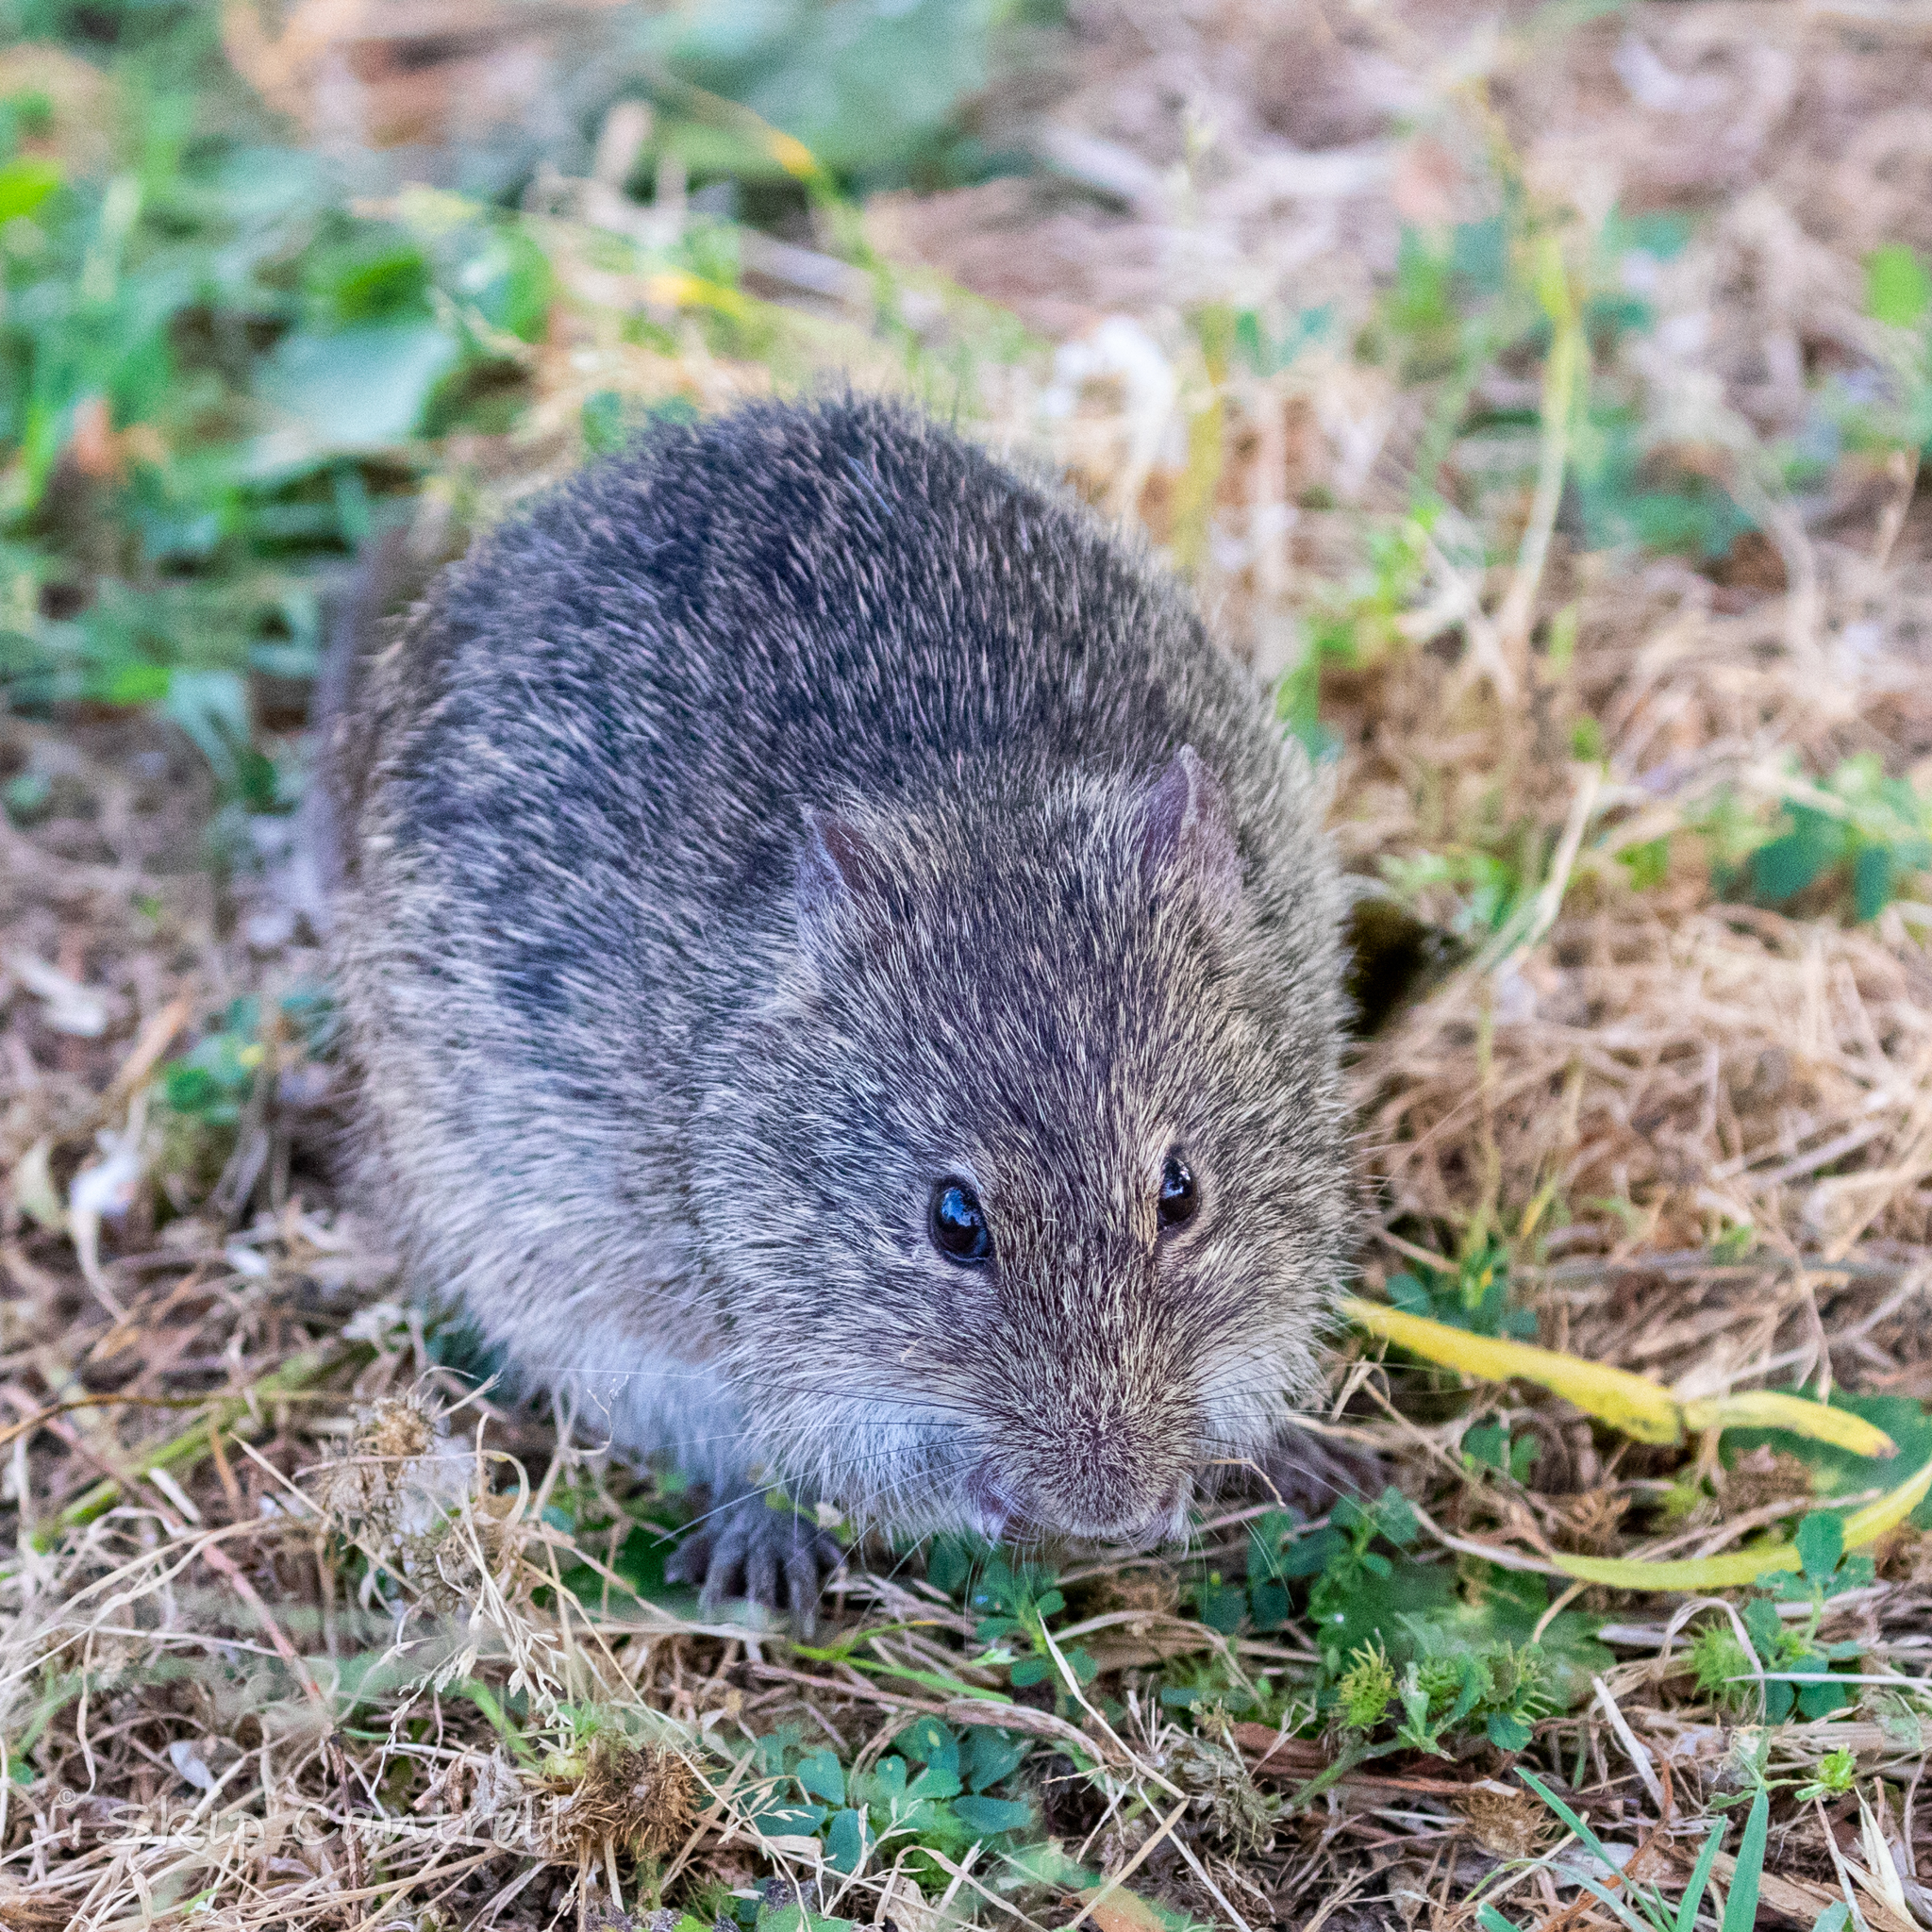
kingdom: Animalia
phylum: Chordata
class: Mammalia
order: Rodentia
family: Cricetidae
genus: Sigmodon
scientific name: Sigmodon hispidus
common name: Hispid cotton rat
